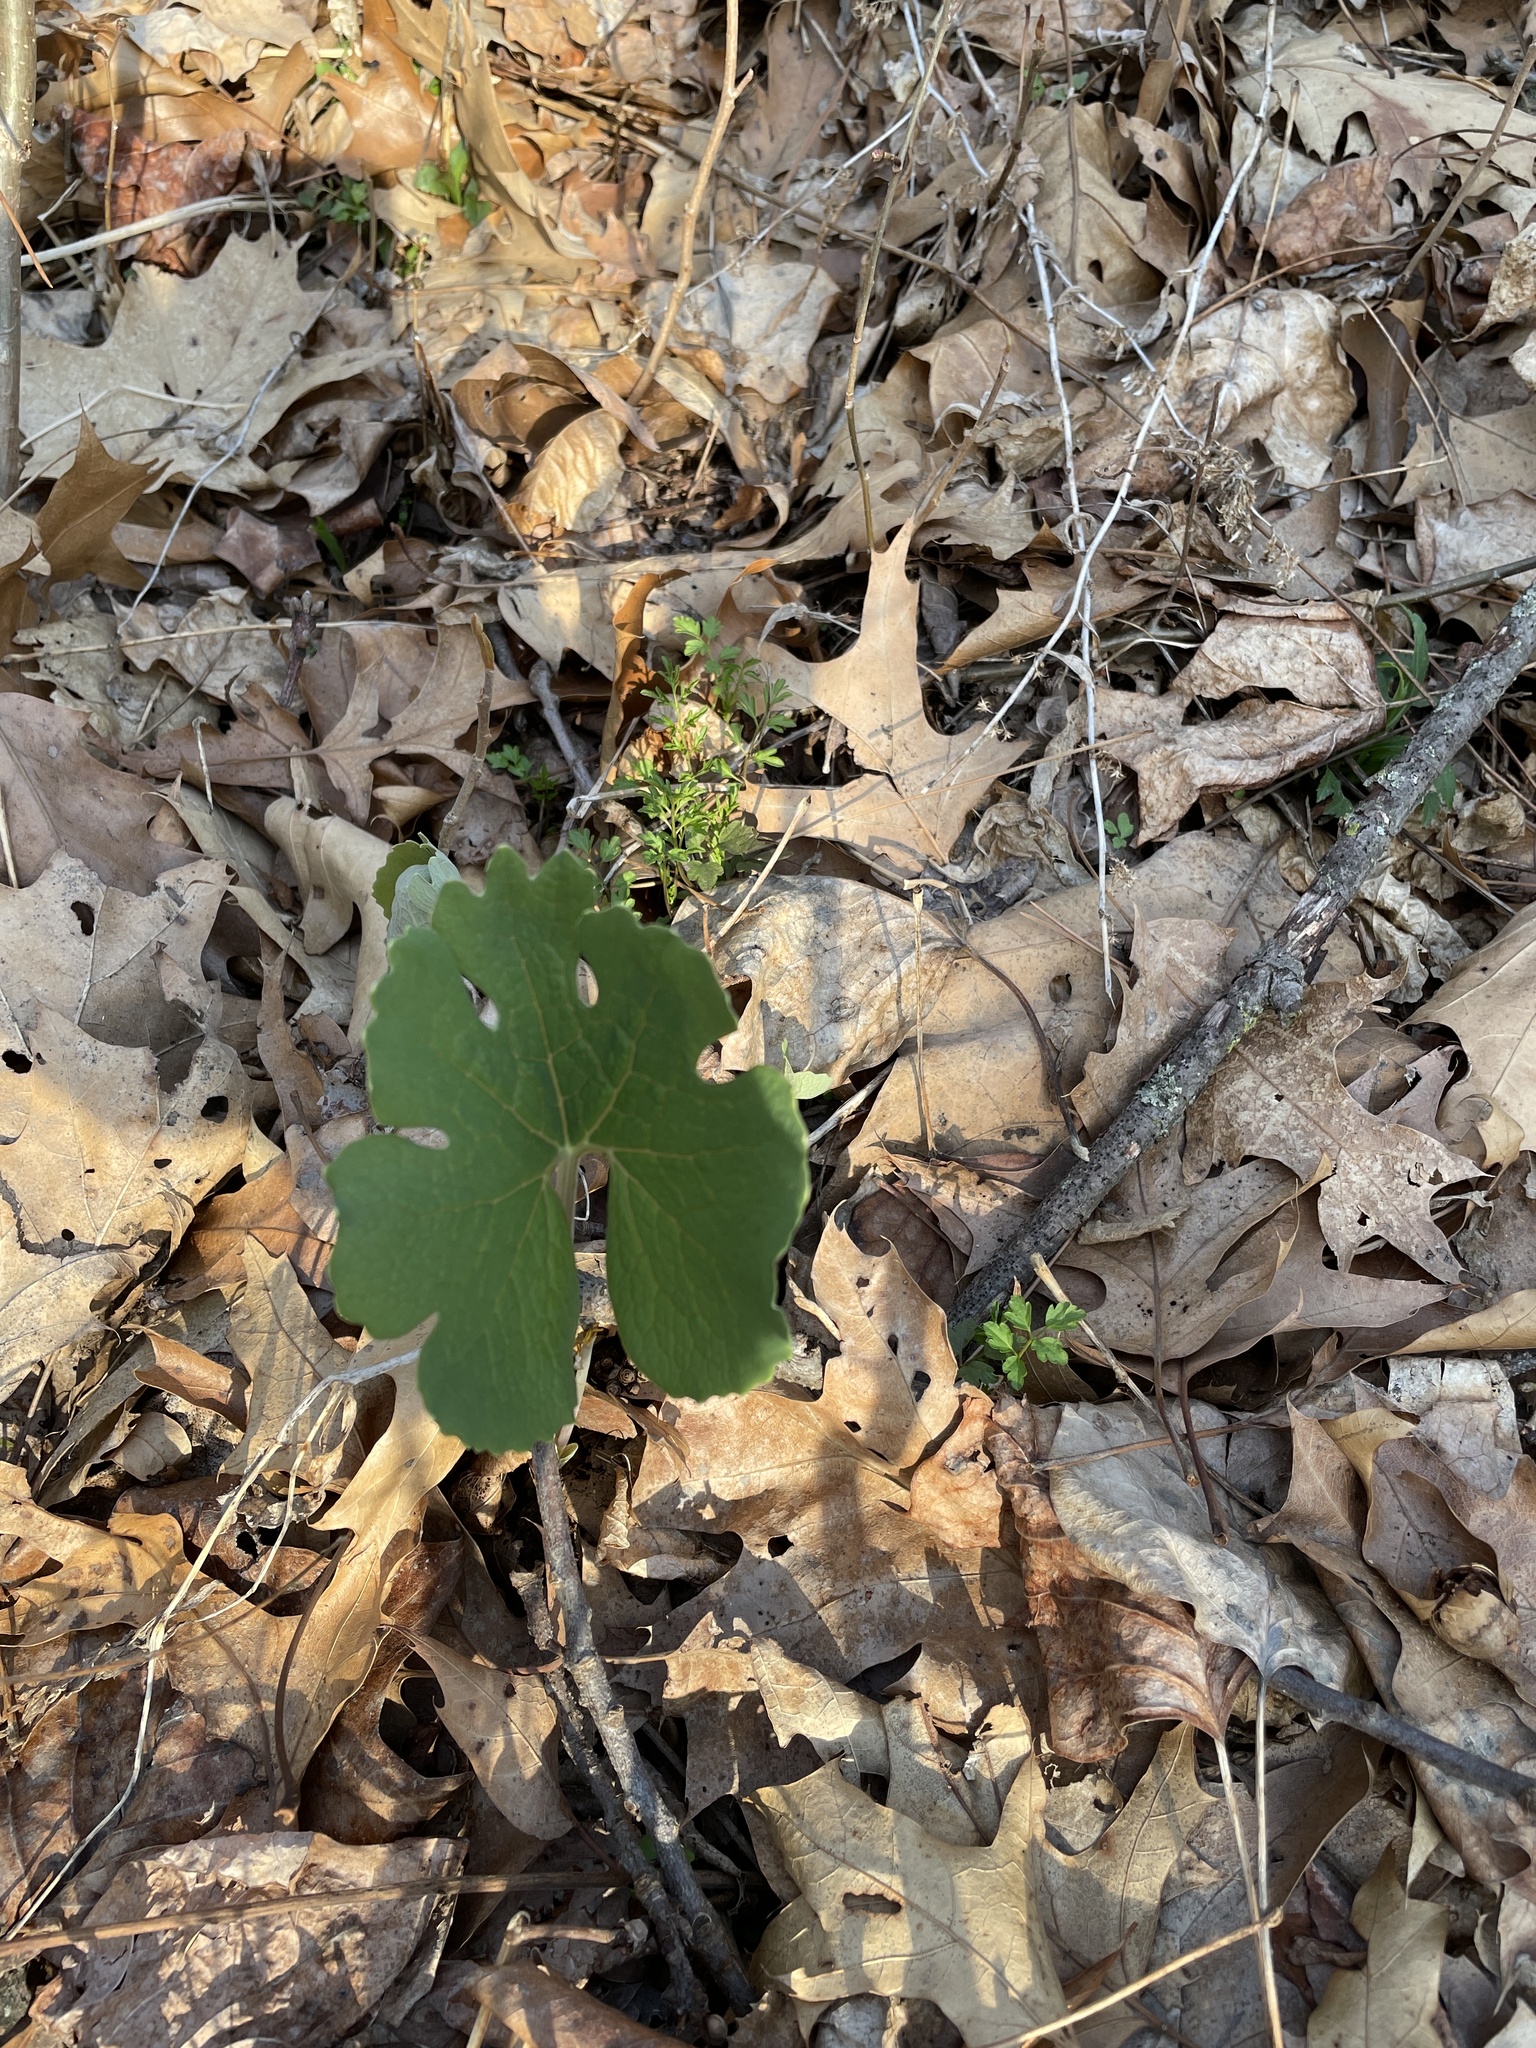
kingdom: Plantae
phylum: Tracheophyta
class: Magnoliopsida
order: Ranunculales
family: Papaveraceae
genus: Sanguinaria
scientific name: Sanguinaria canadensis
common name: Bloodroot
